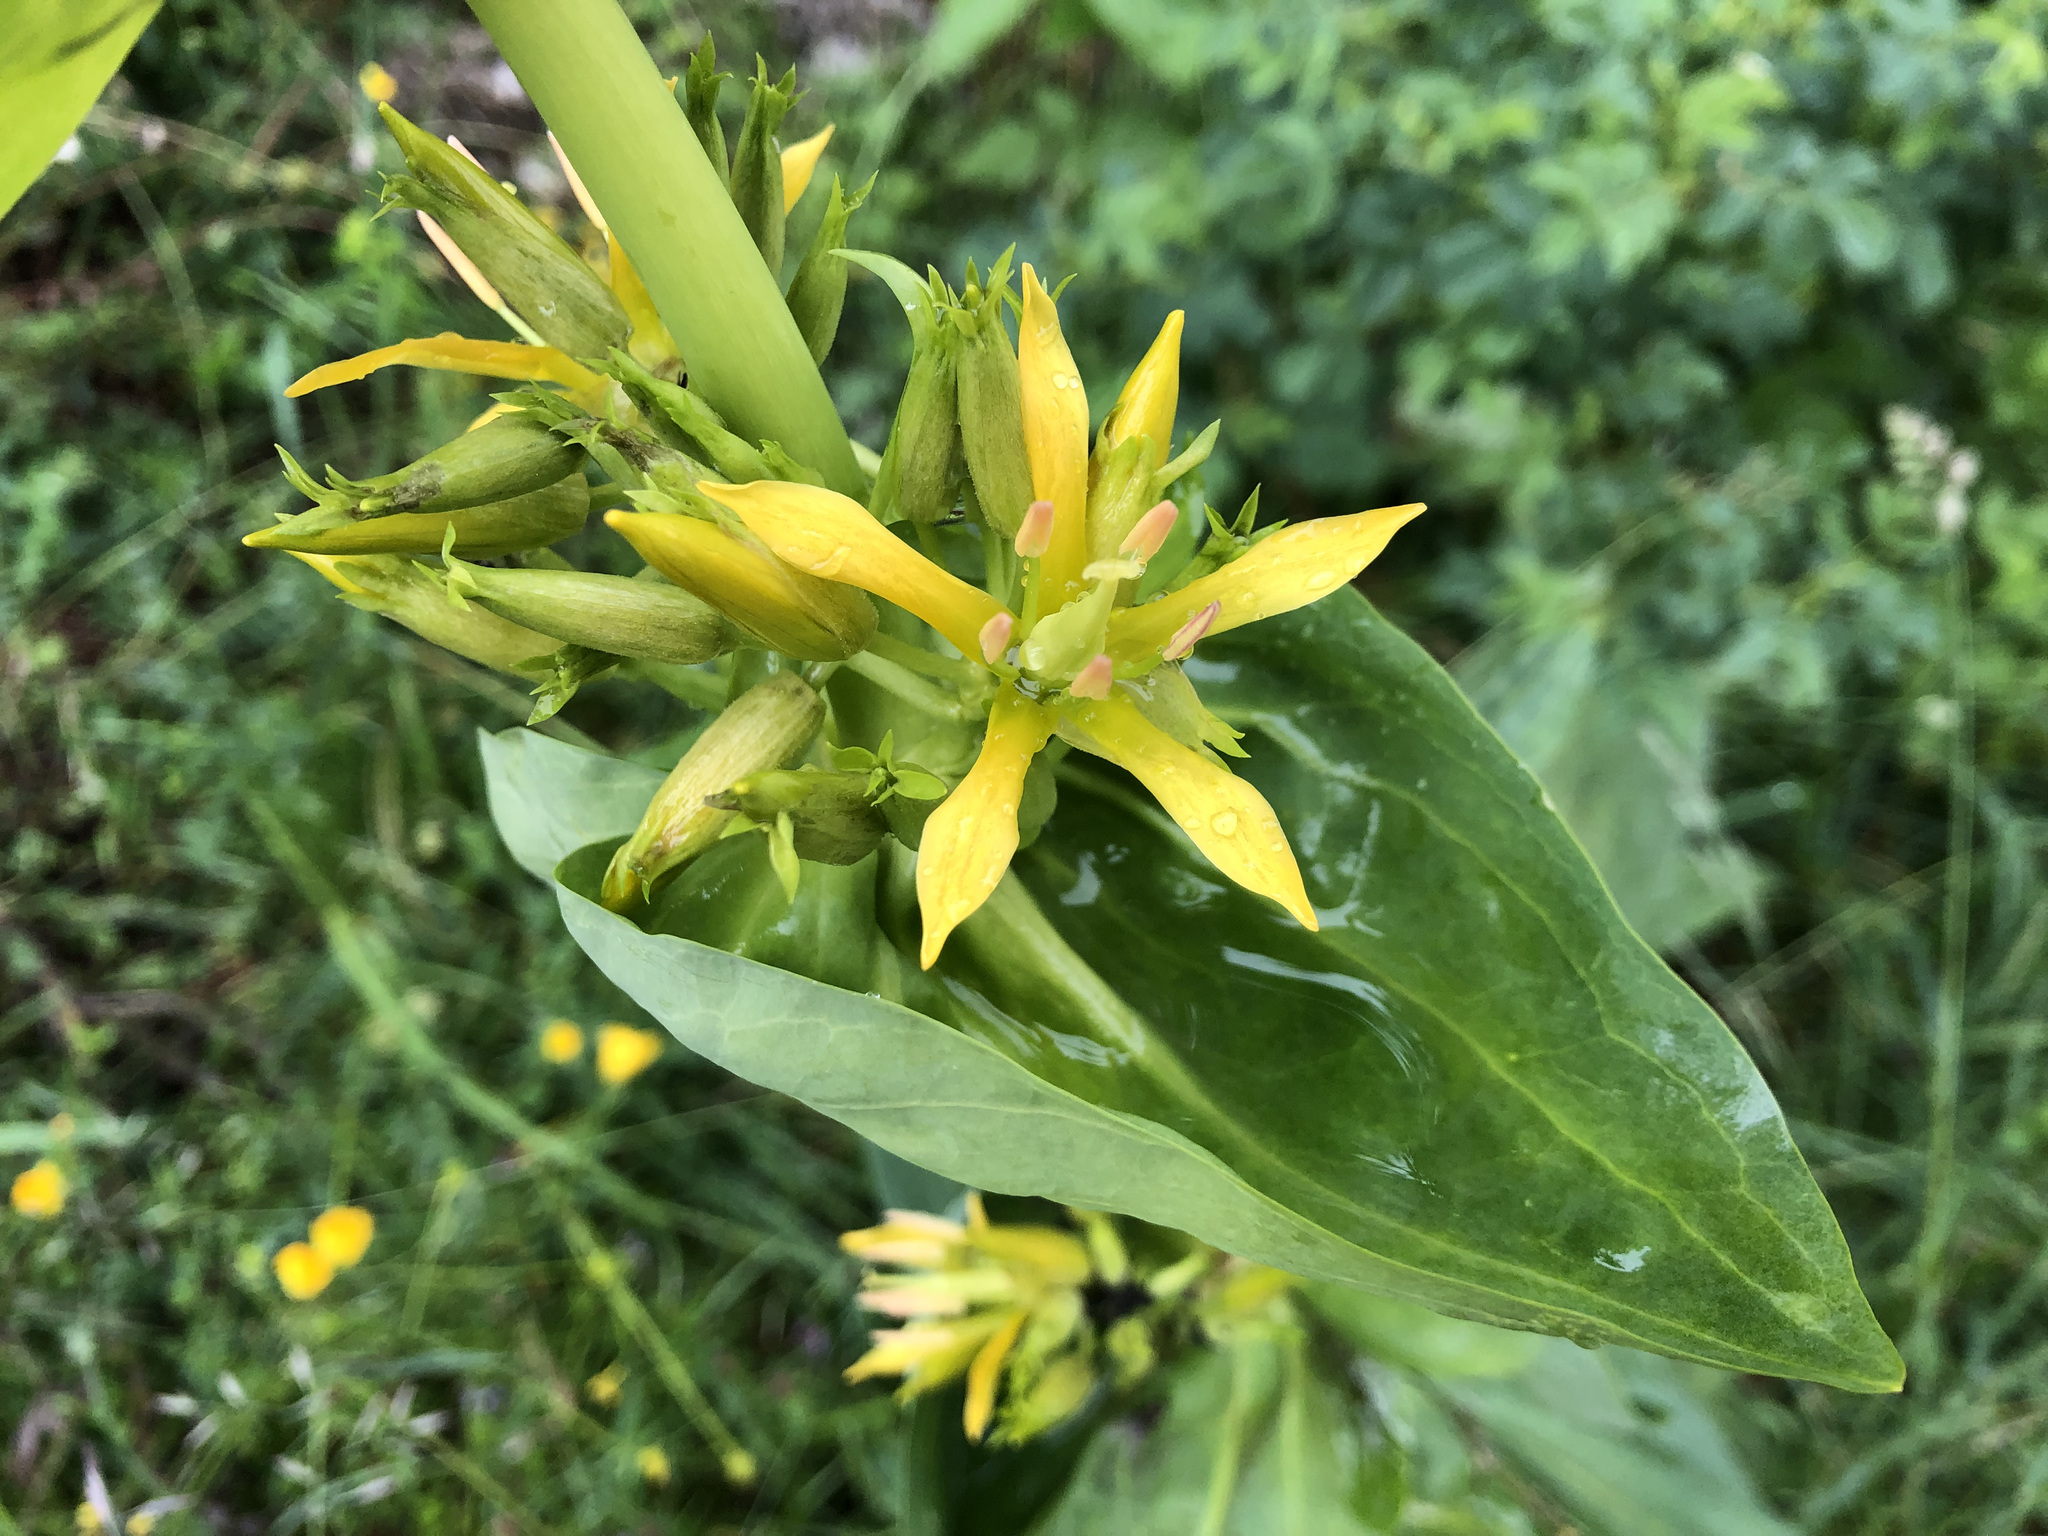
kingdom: Plantae
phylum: Tracheophyta
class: Magnoliopsida
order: Gentianales
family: Gentianaceae
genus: Gentiana
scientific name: Gentiana lutea
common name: Great yellow gentian
